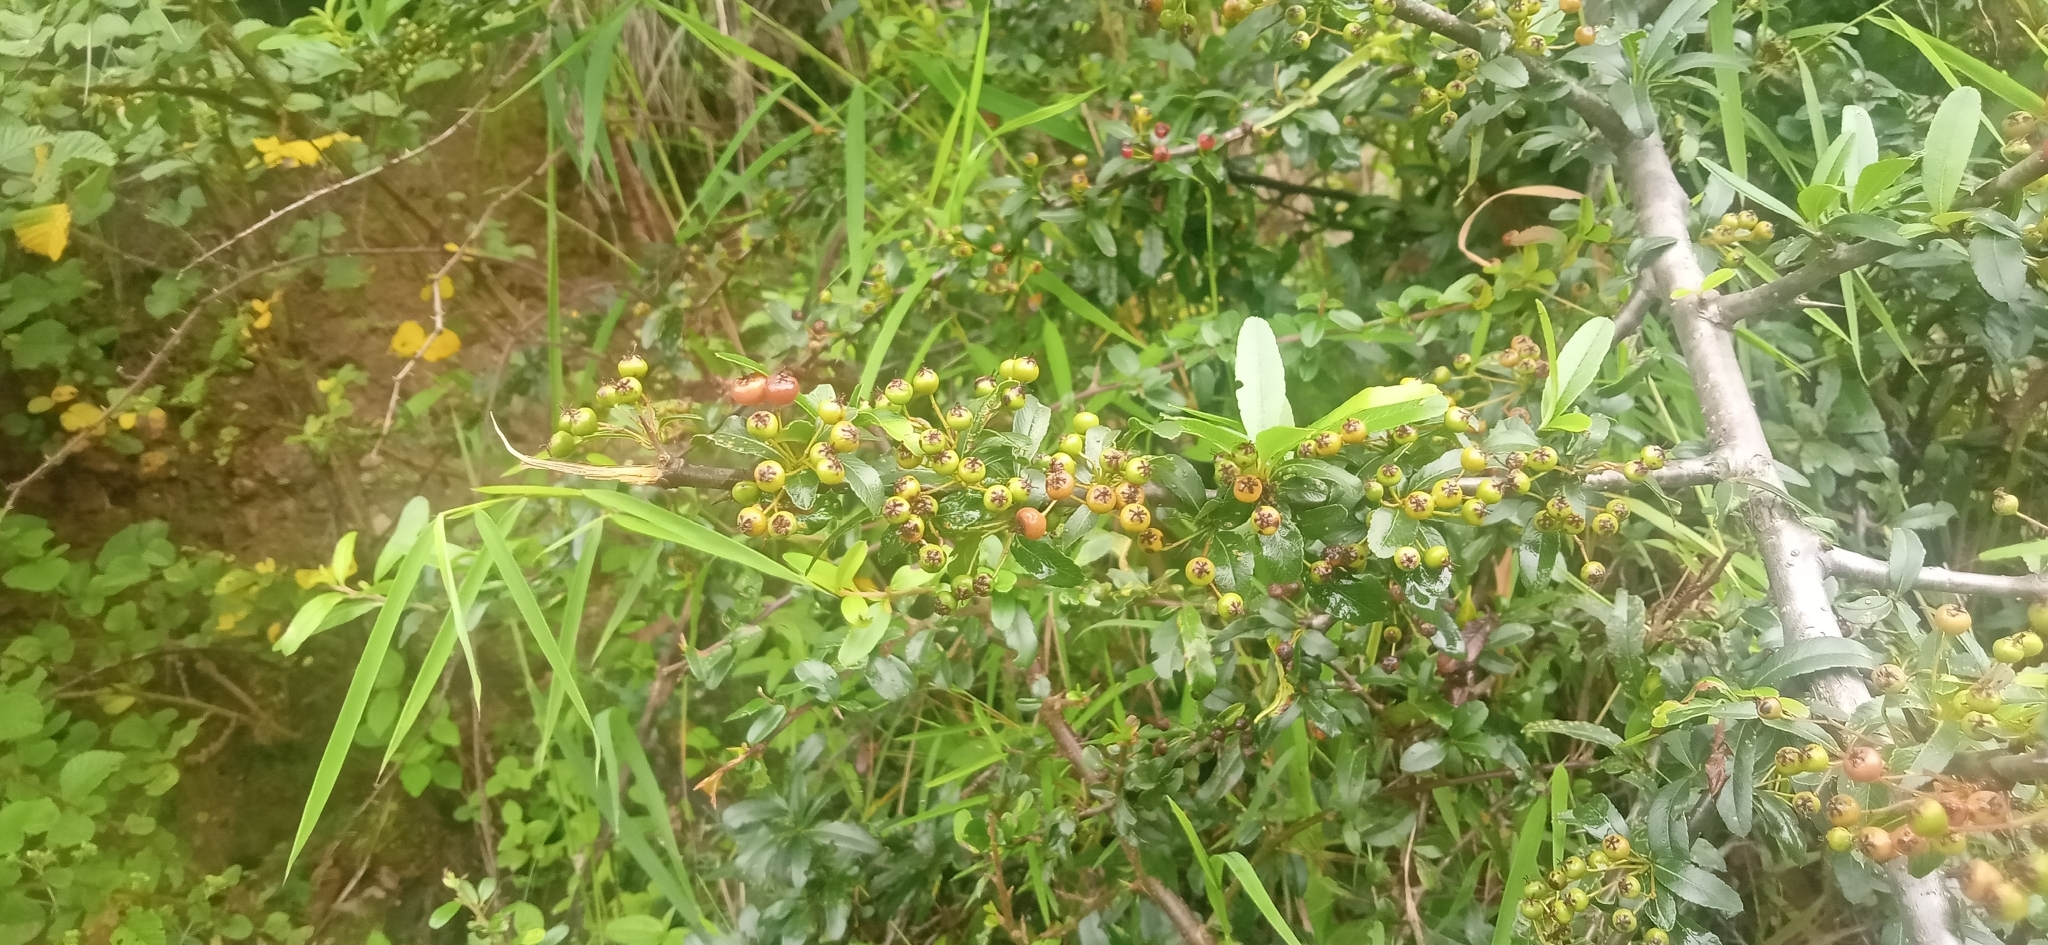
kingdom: Plantae
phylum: Tracheophyta
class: Magnoliopsida
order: Rosales
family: Rosaceae
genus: Pyracantha
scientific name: Pyracantha crenulata
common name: Nepalese firethorn
